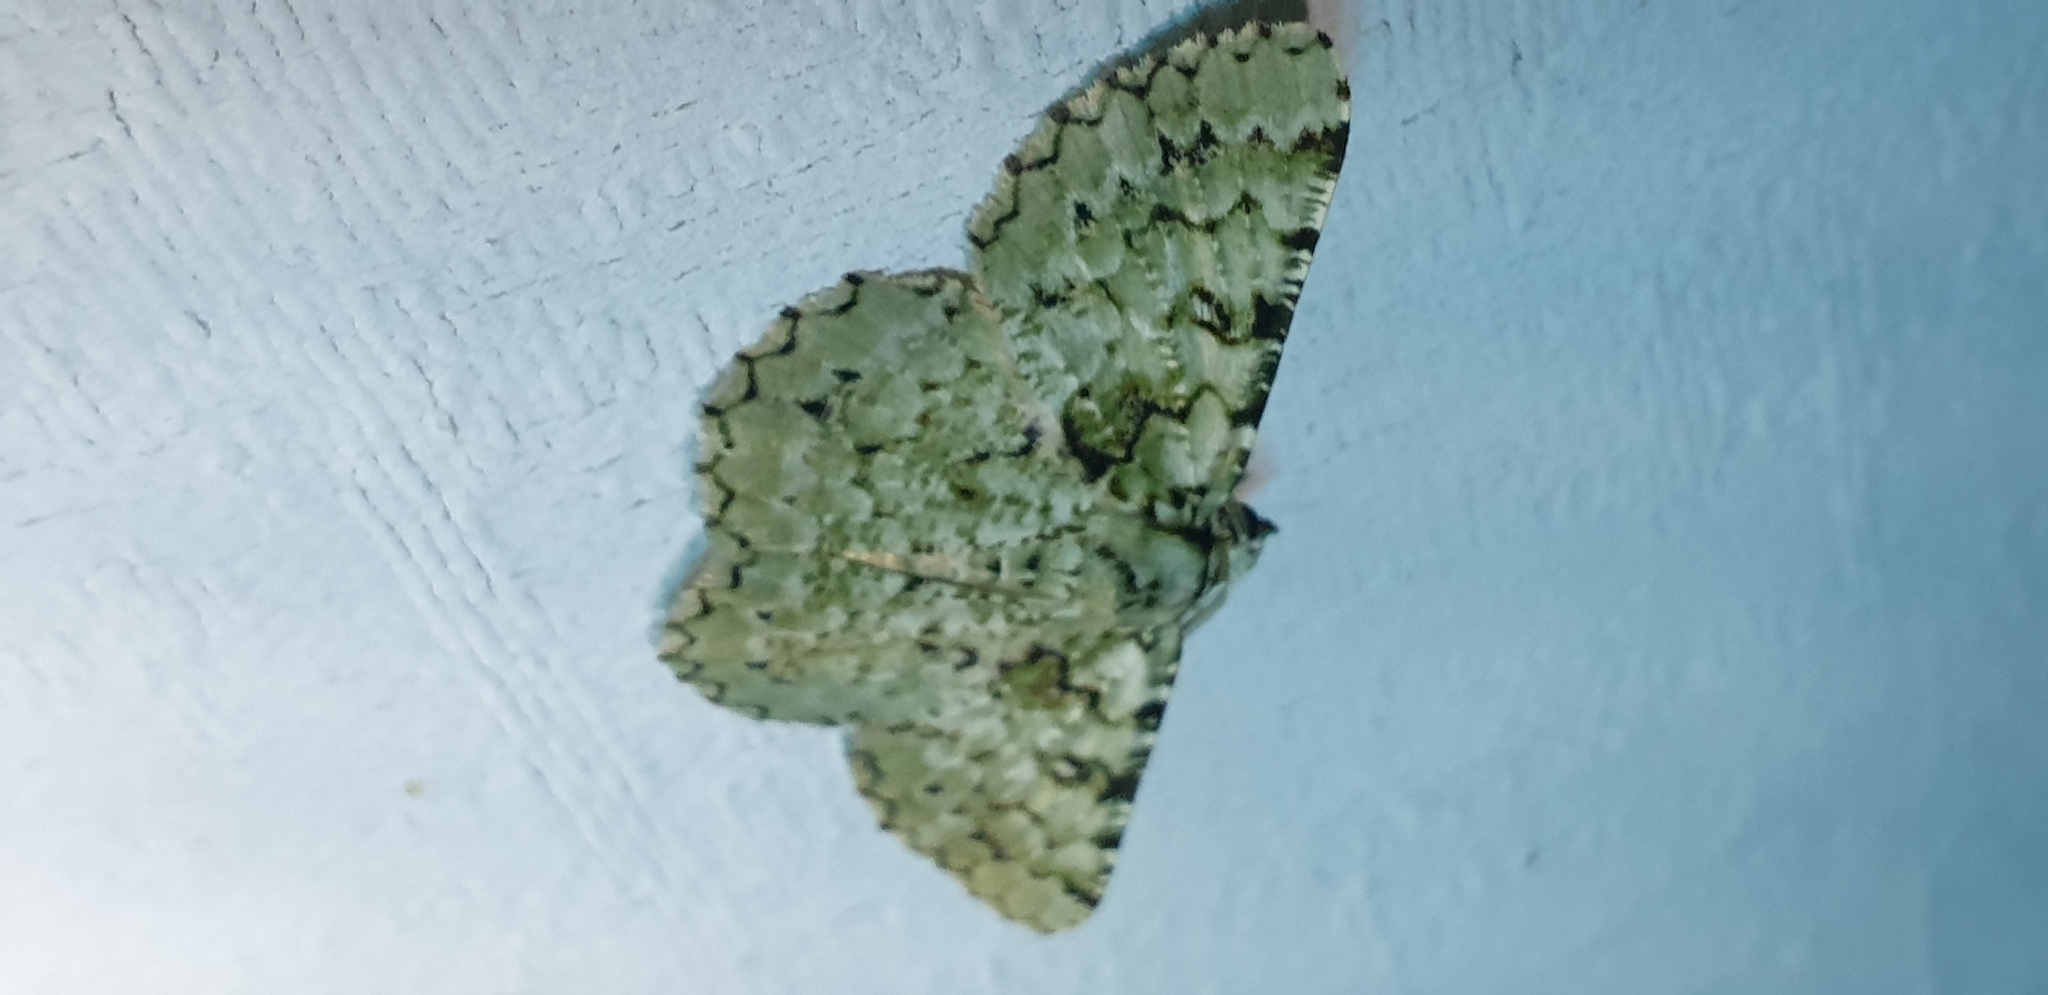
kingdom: Animalia
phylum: Arthropoda
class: Insecta
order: Lepidoptera
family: Geometridae
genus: Aeolochroma
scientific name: Aeolochroma mniaria
